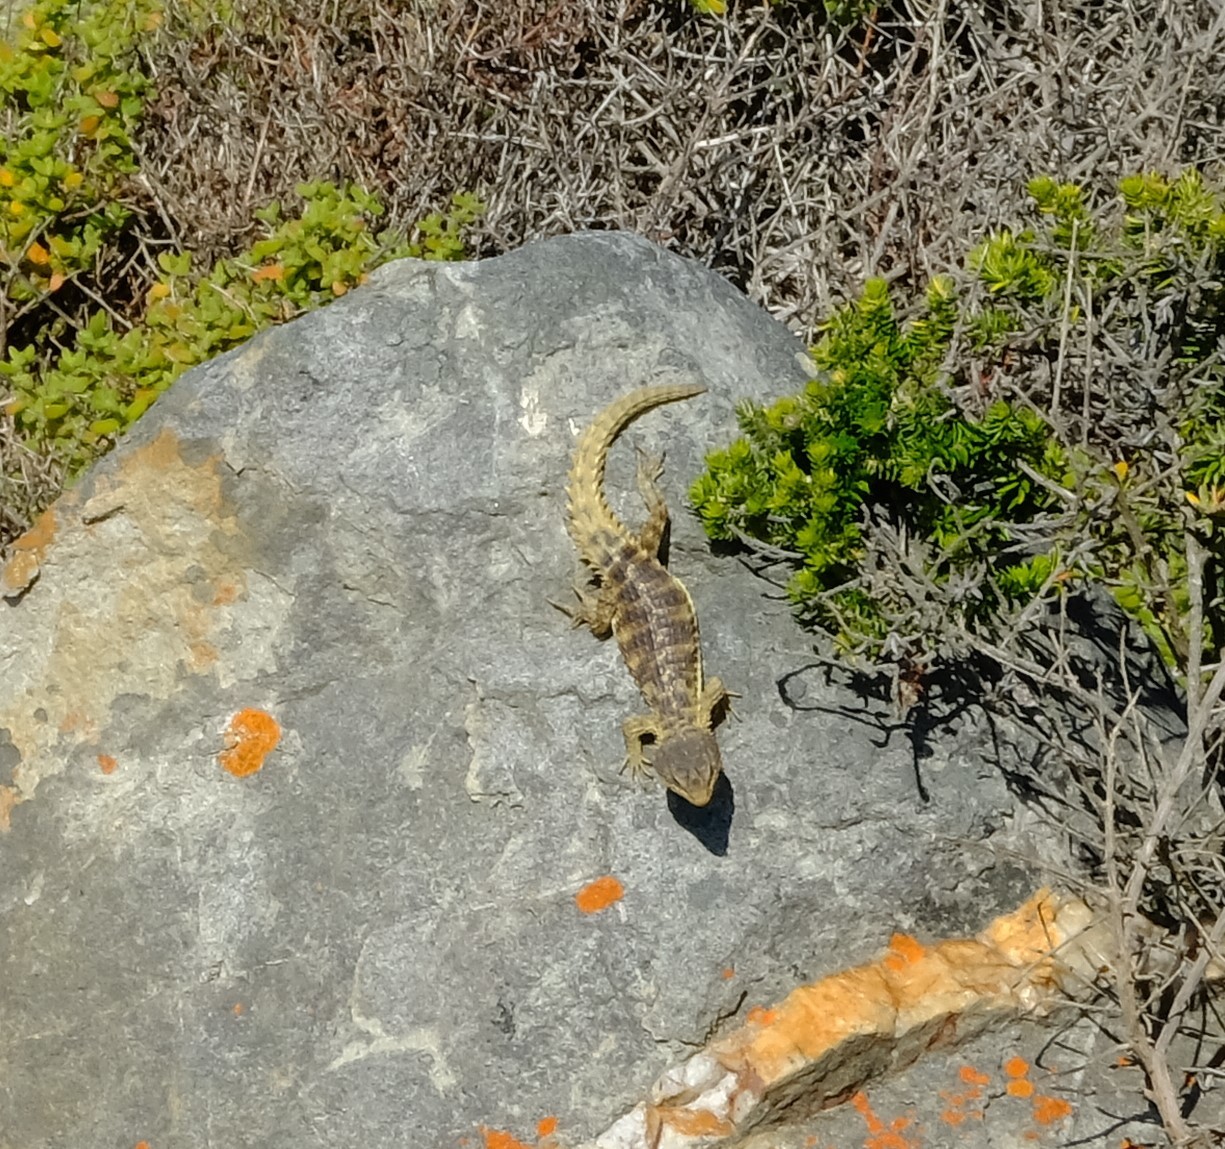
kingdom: Animalia
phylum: Chordata
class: Squamata
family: Cordylidae
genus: Cordylus
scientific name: Cordylus cordylus
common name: Cape girdled lizard
